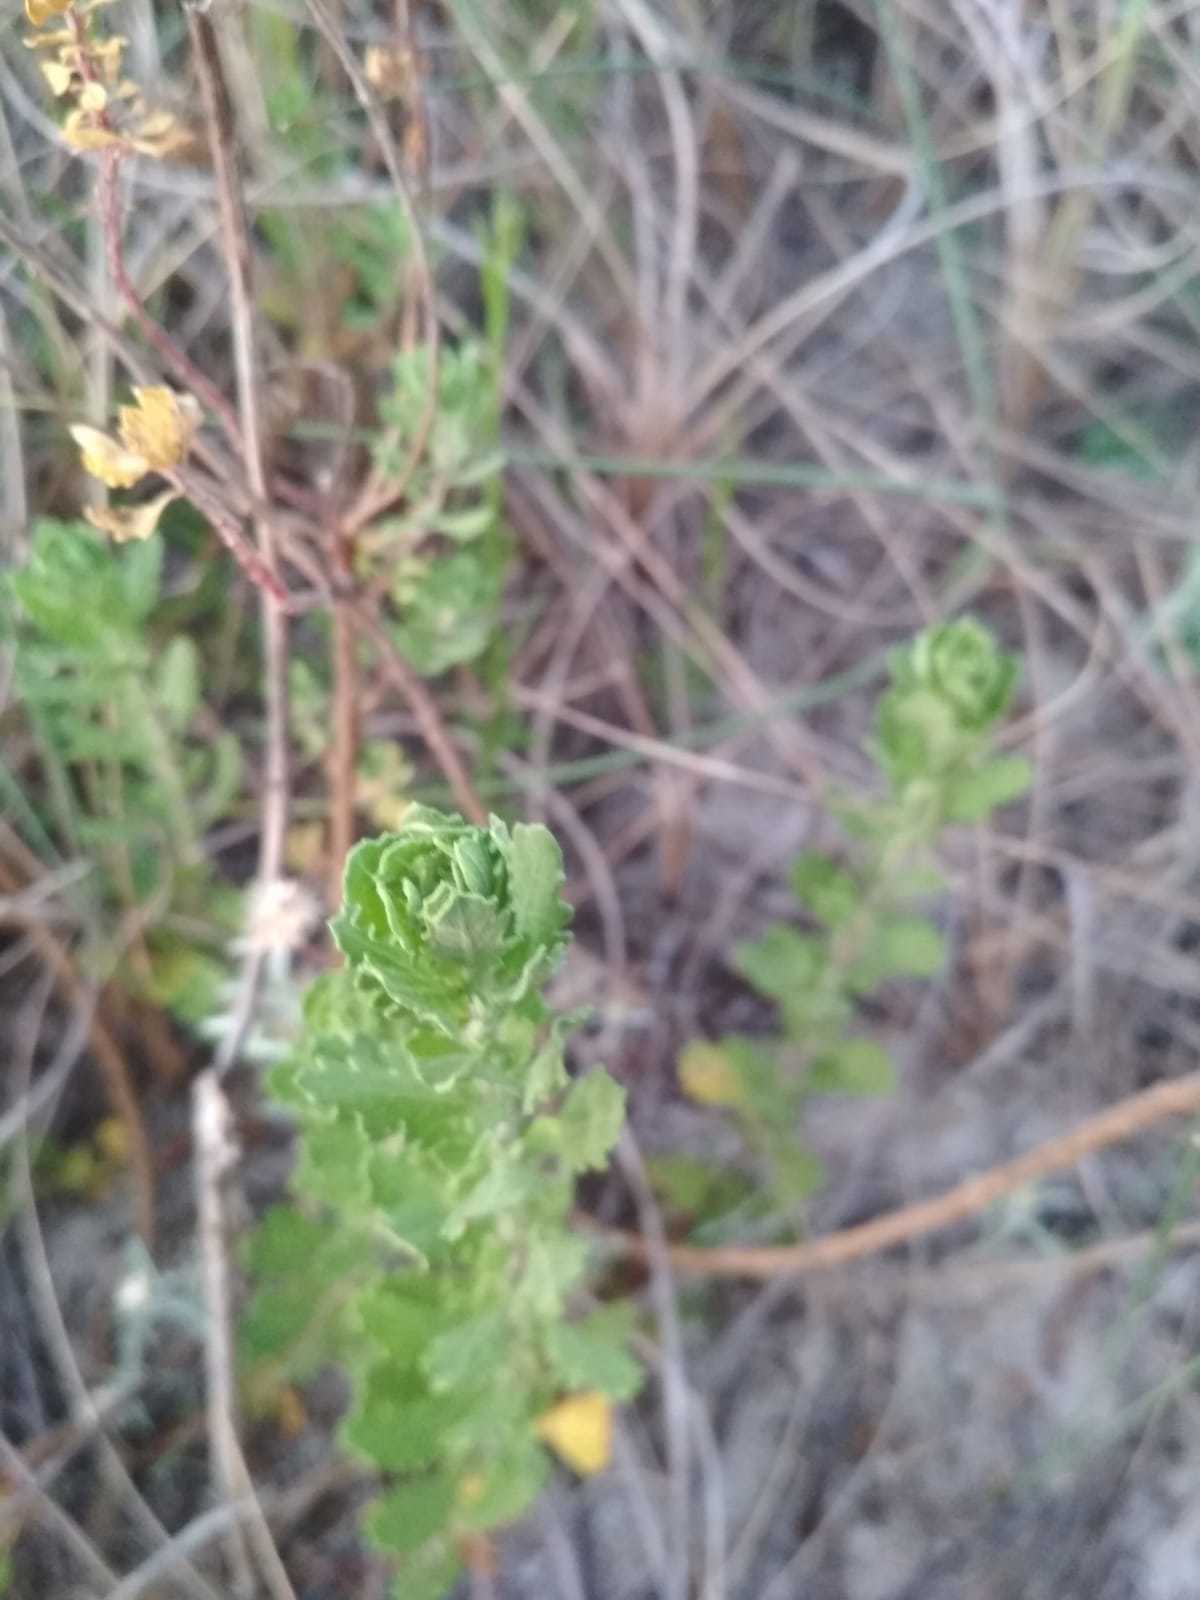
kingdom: Plantae
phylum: Tracheophyta
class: Magnoliopsida
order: Caryophyllales
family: Amaranthaceae
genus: Dysphania
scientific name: Dysphania retusa
